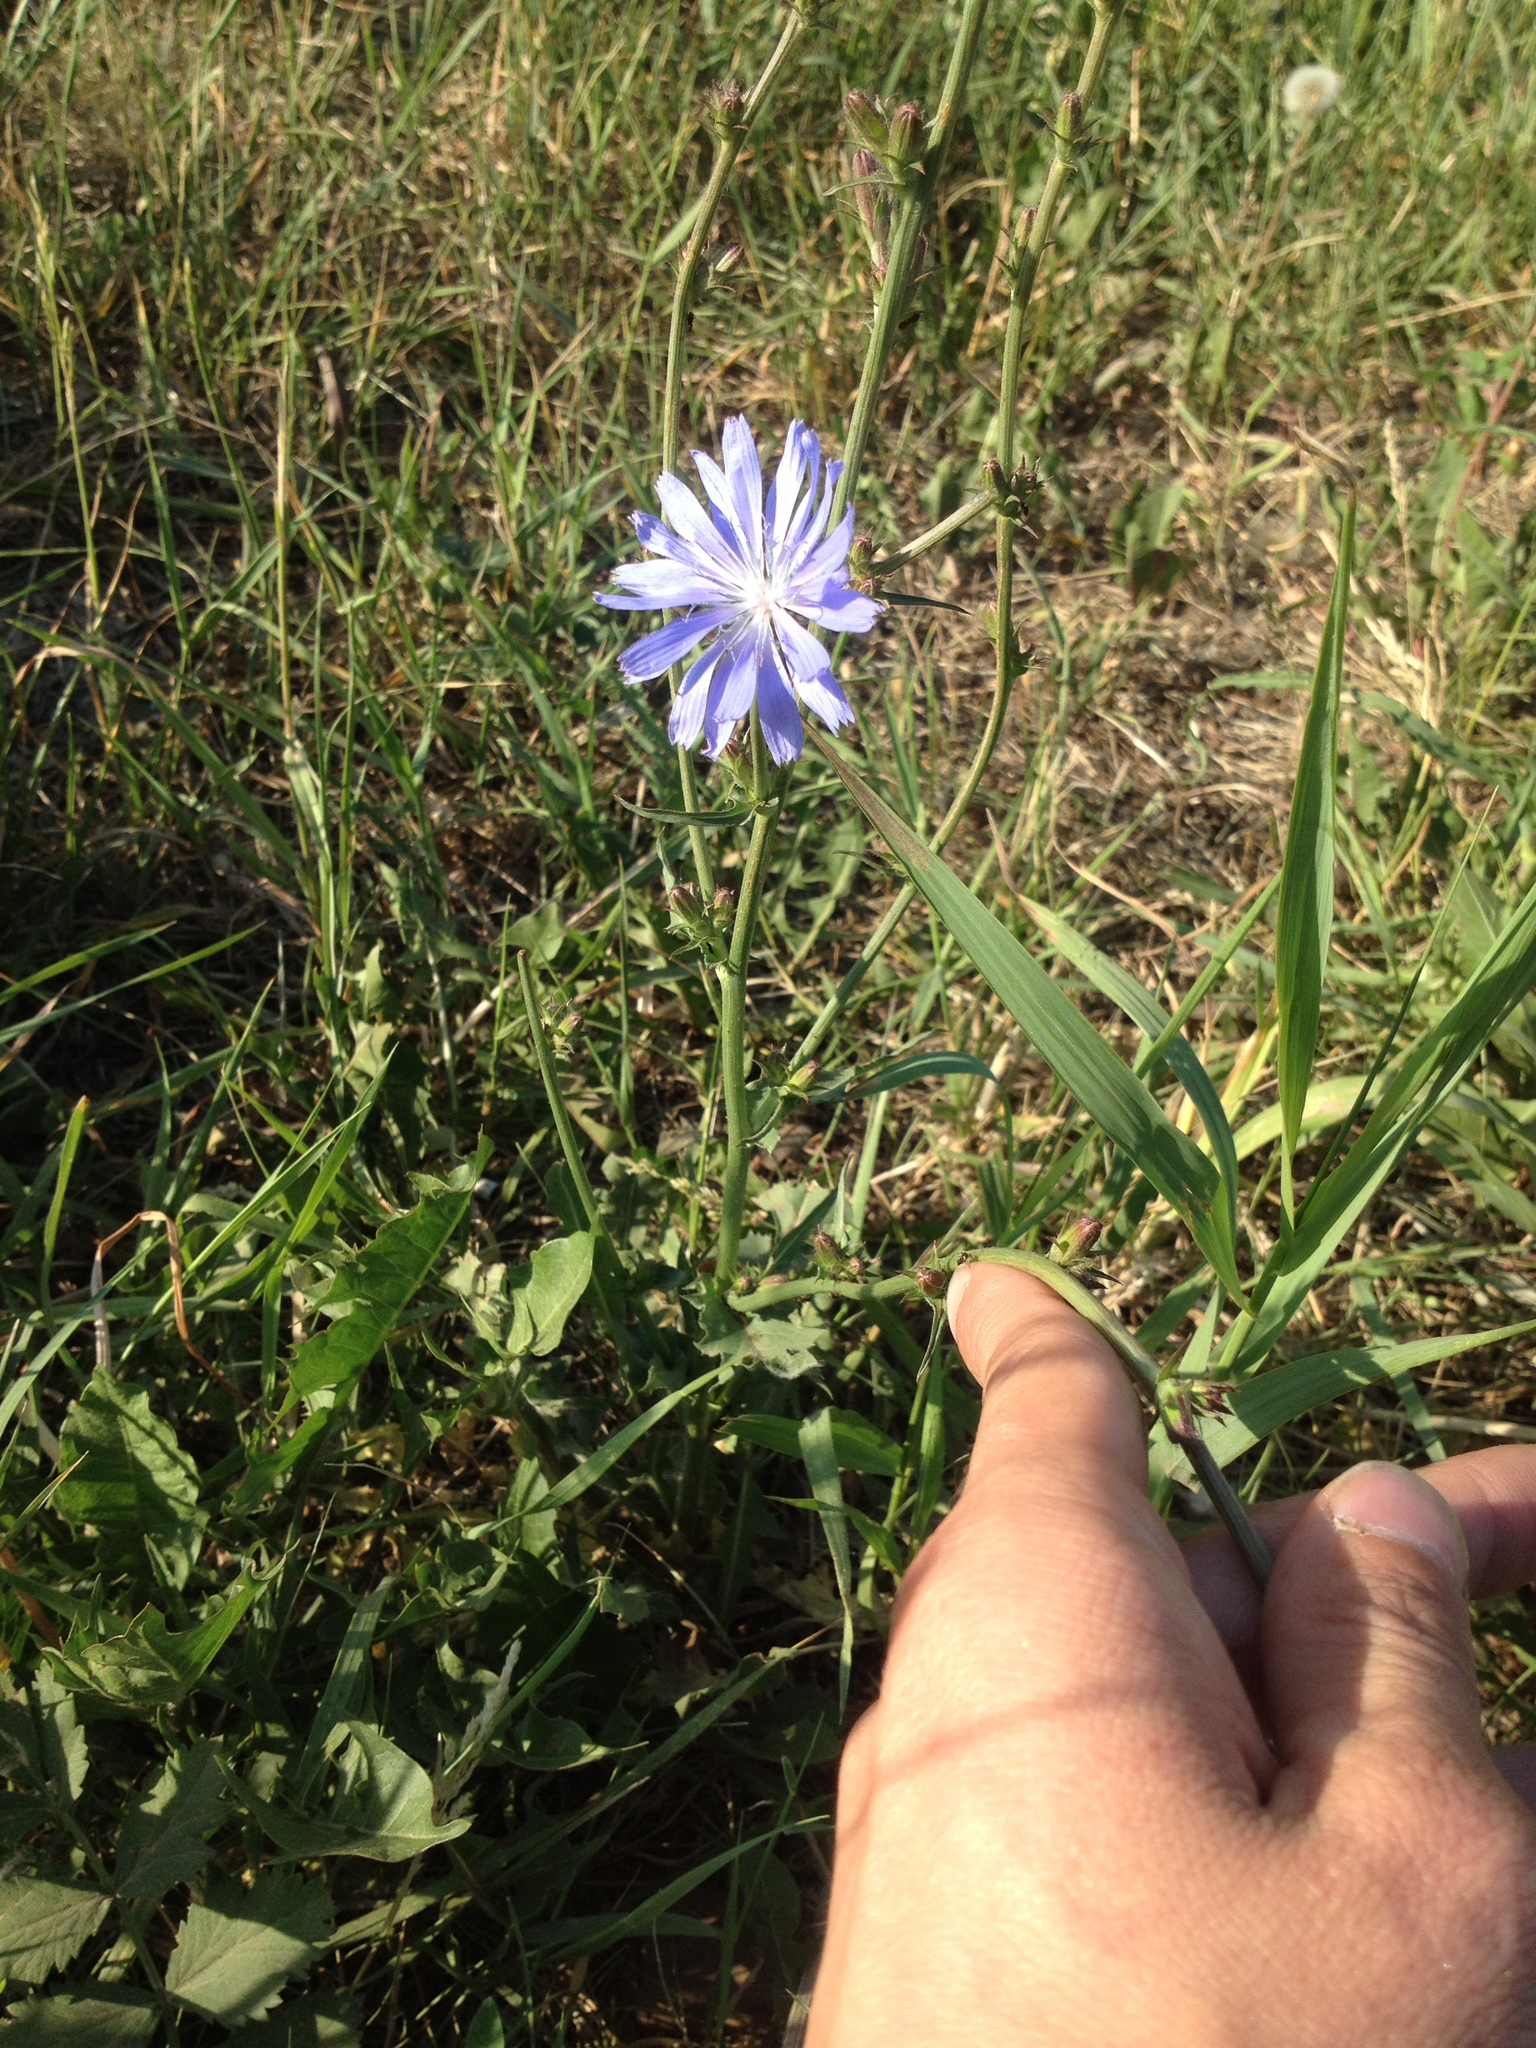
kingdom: Plantae
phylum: Tracheophyta
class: Magnoliopsida
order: Asterales
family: Asteraceae
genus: Cichorium
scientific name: Cichorium intybus
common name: Chicory
